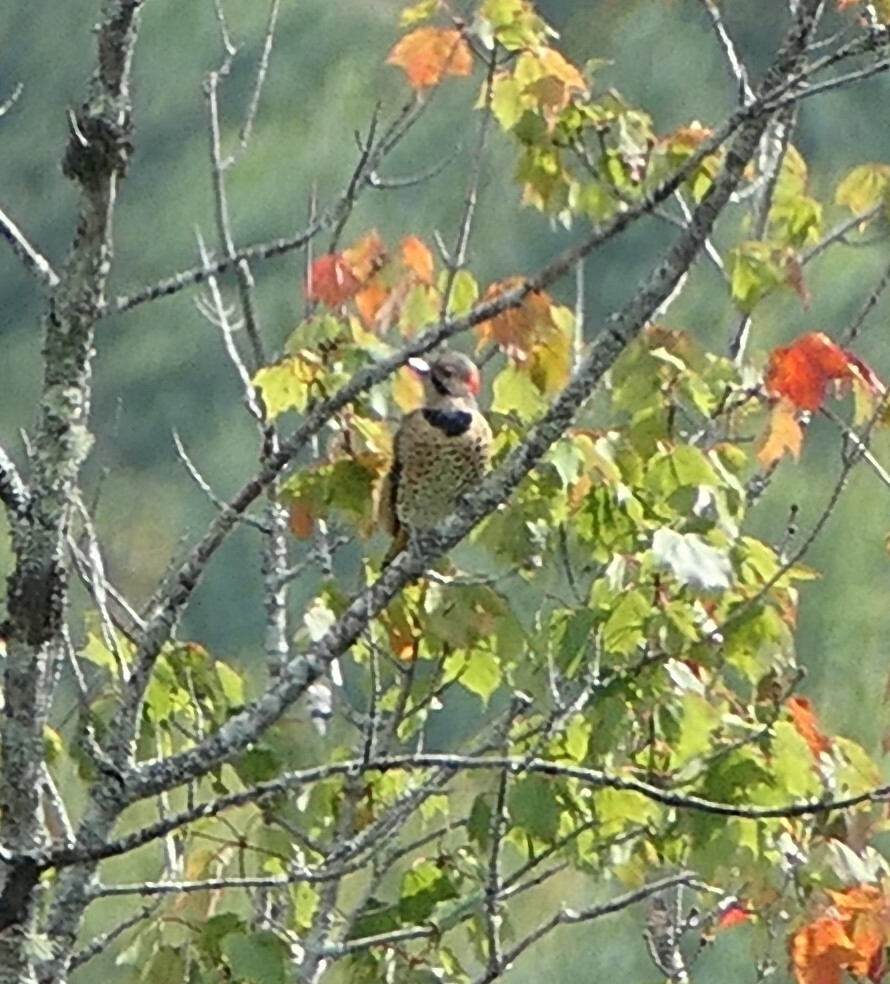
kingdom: Animalia
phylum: Chordata
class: Aves
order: Piciformes
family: Picidae
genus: Colaptes
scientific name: Colaptes auratus
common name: Northern flicker
